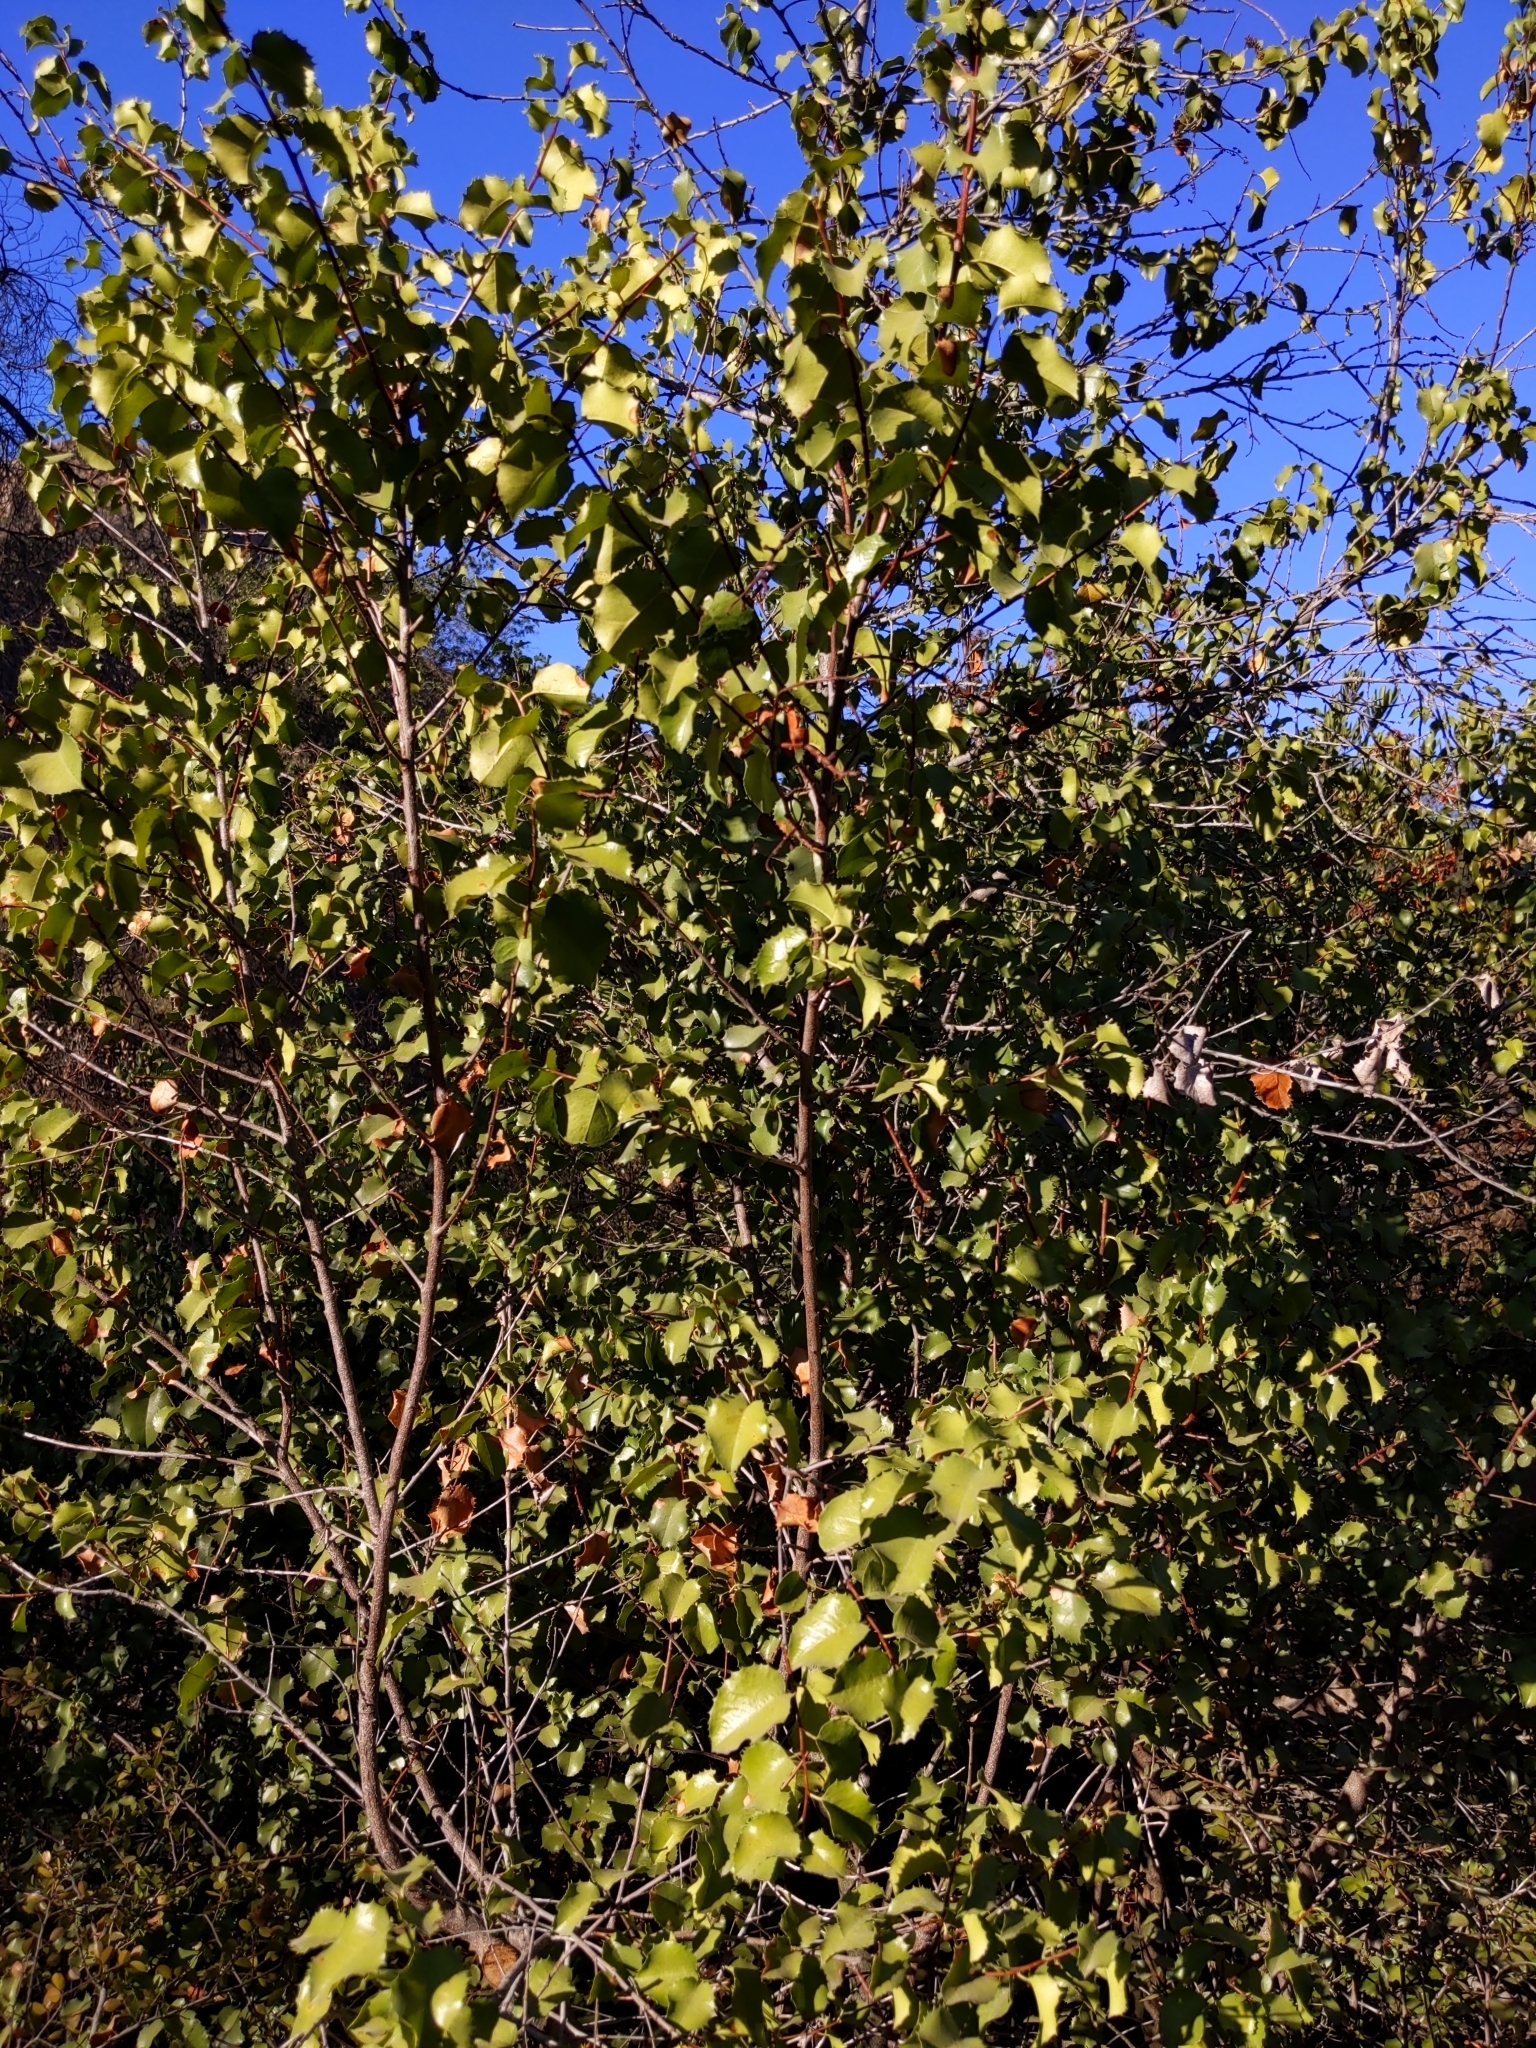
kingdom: Plantae
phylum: Tracheophyta
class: Magnoliopsida
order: Rosales
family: Rosaceae
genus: Prunus
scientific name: Prunus ilicifolia
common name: Hollyleaf cherry
